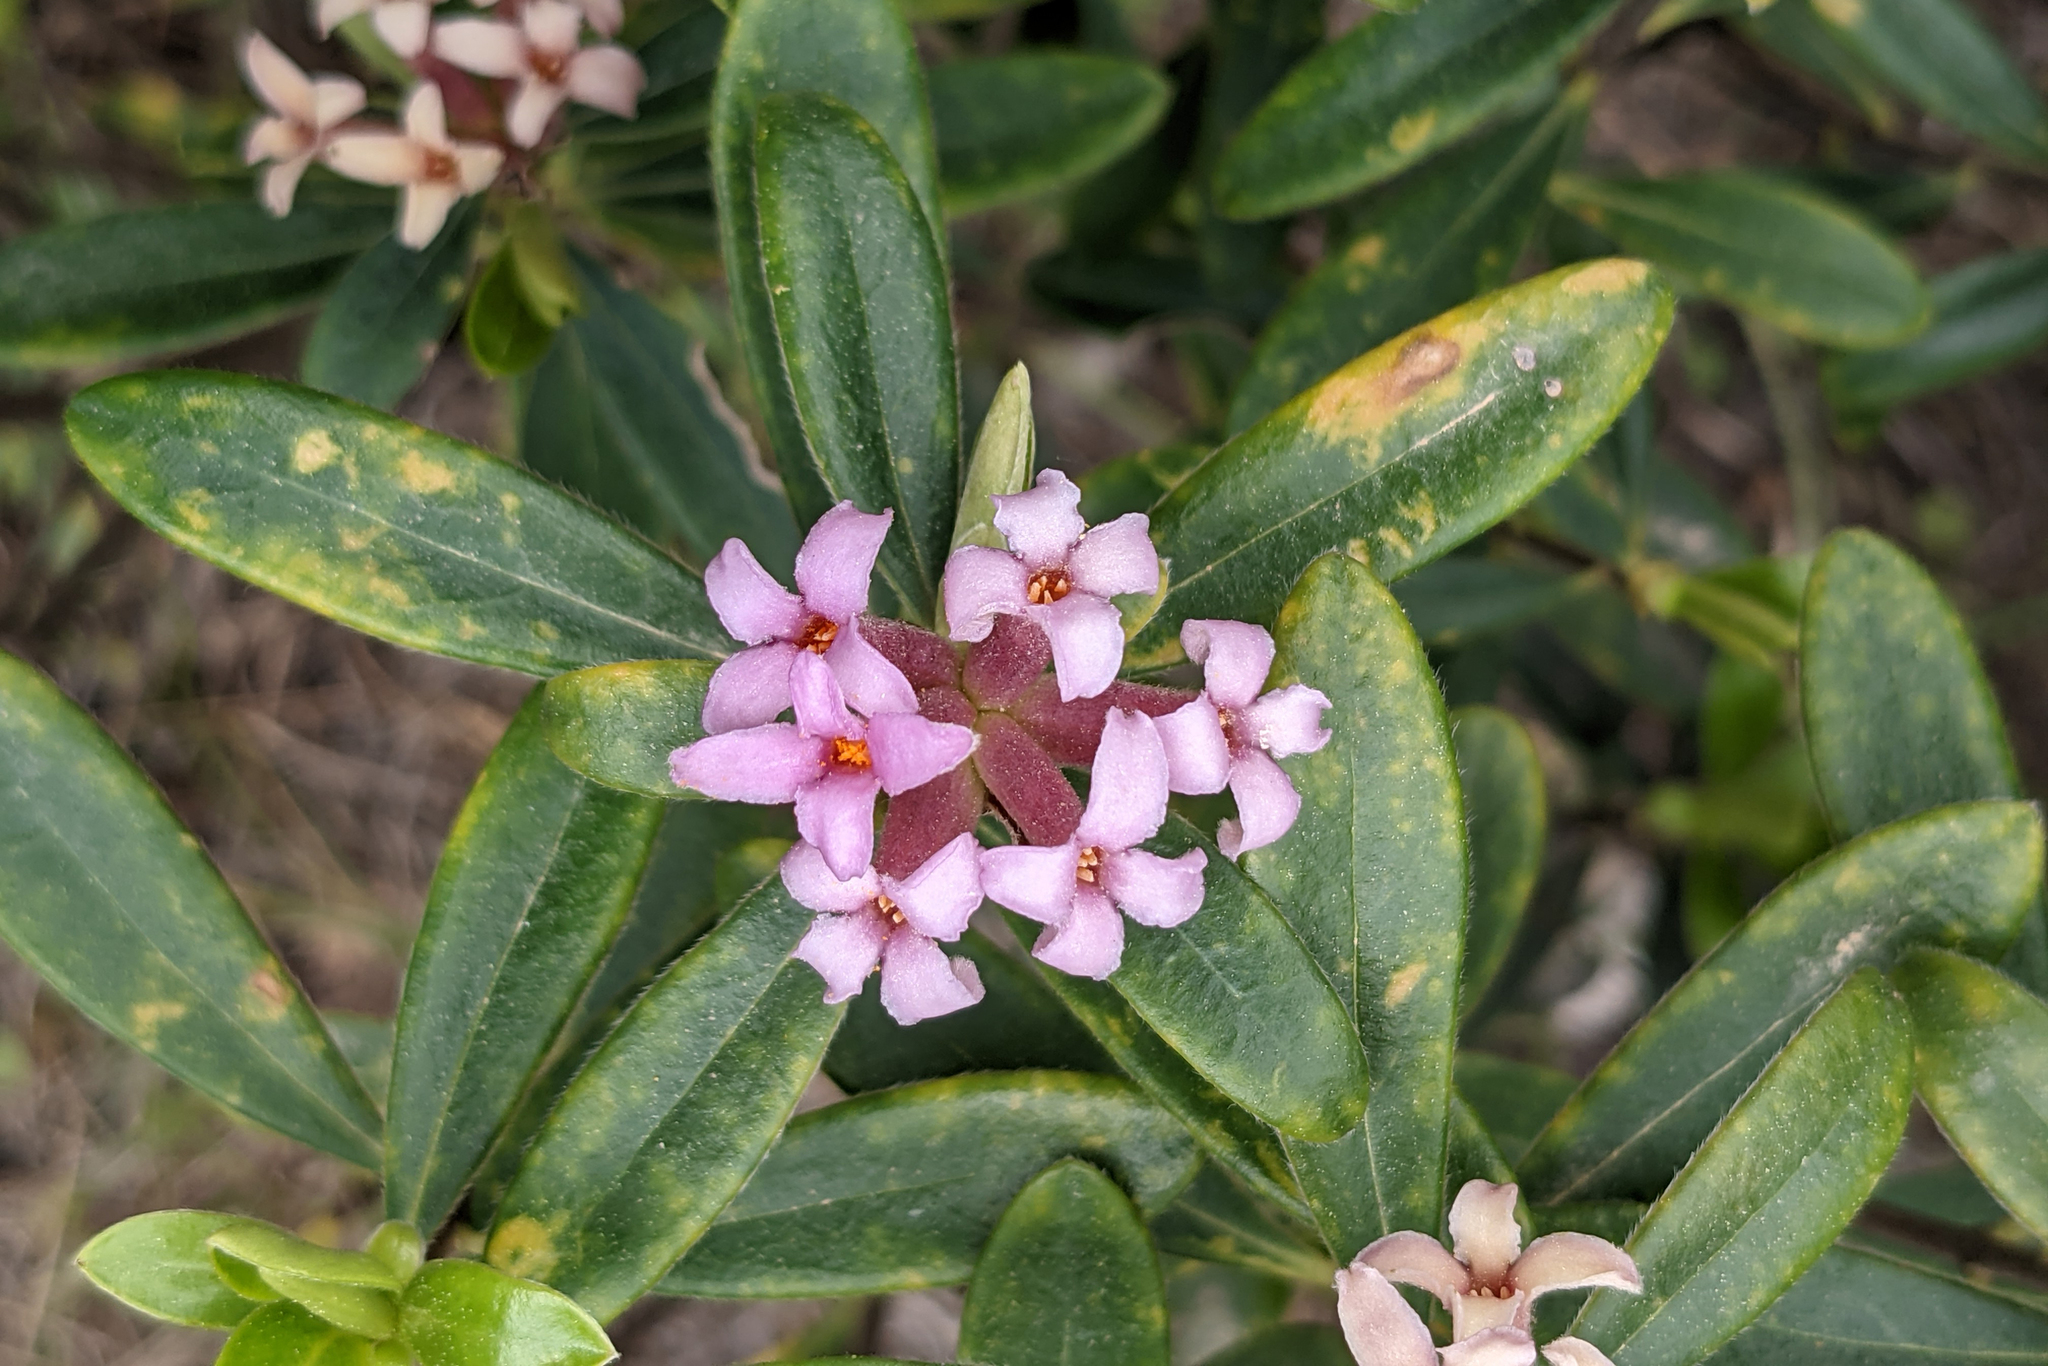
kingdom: Plantae
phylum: Tracheophyta
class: Magnoliopsida
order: Malvales
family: Thymelaeaceae
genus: Daphne
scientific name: Daphne sericea
